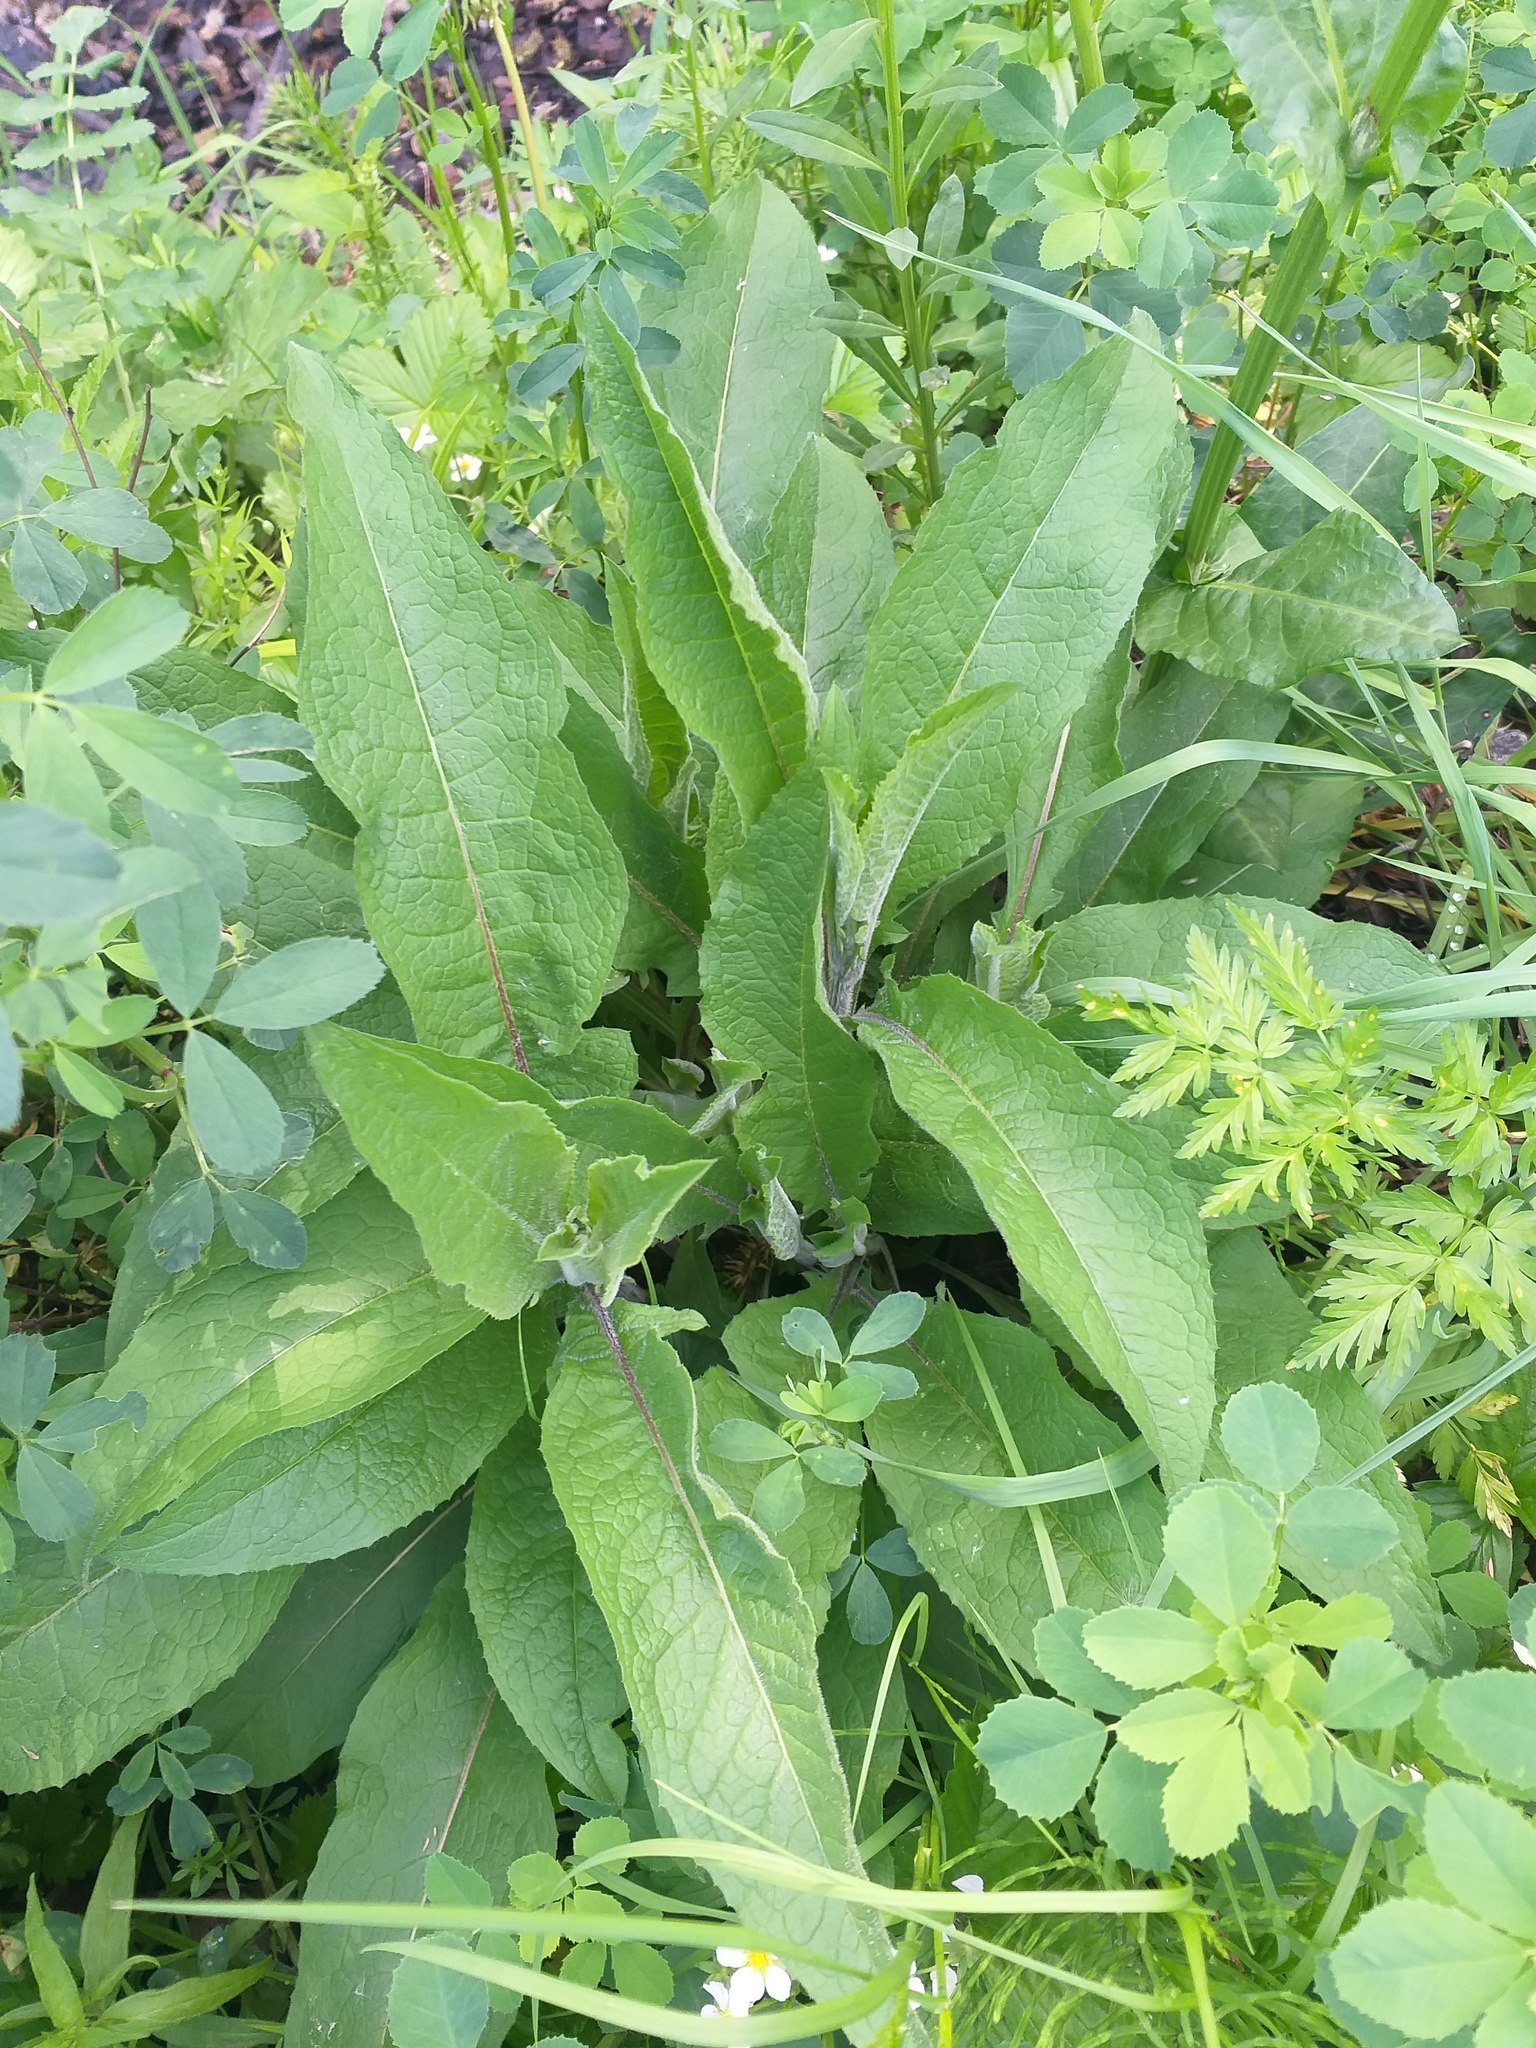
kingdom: Plantae
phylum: Tracheophyta
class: Magnoliopsida
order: Asterales
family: Asteraceae
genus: Centaurea
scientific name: Centaurea phrygia
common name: Wig knapweed
